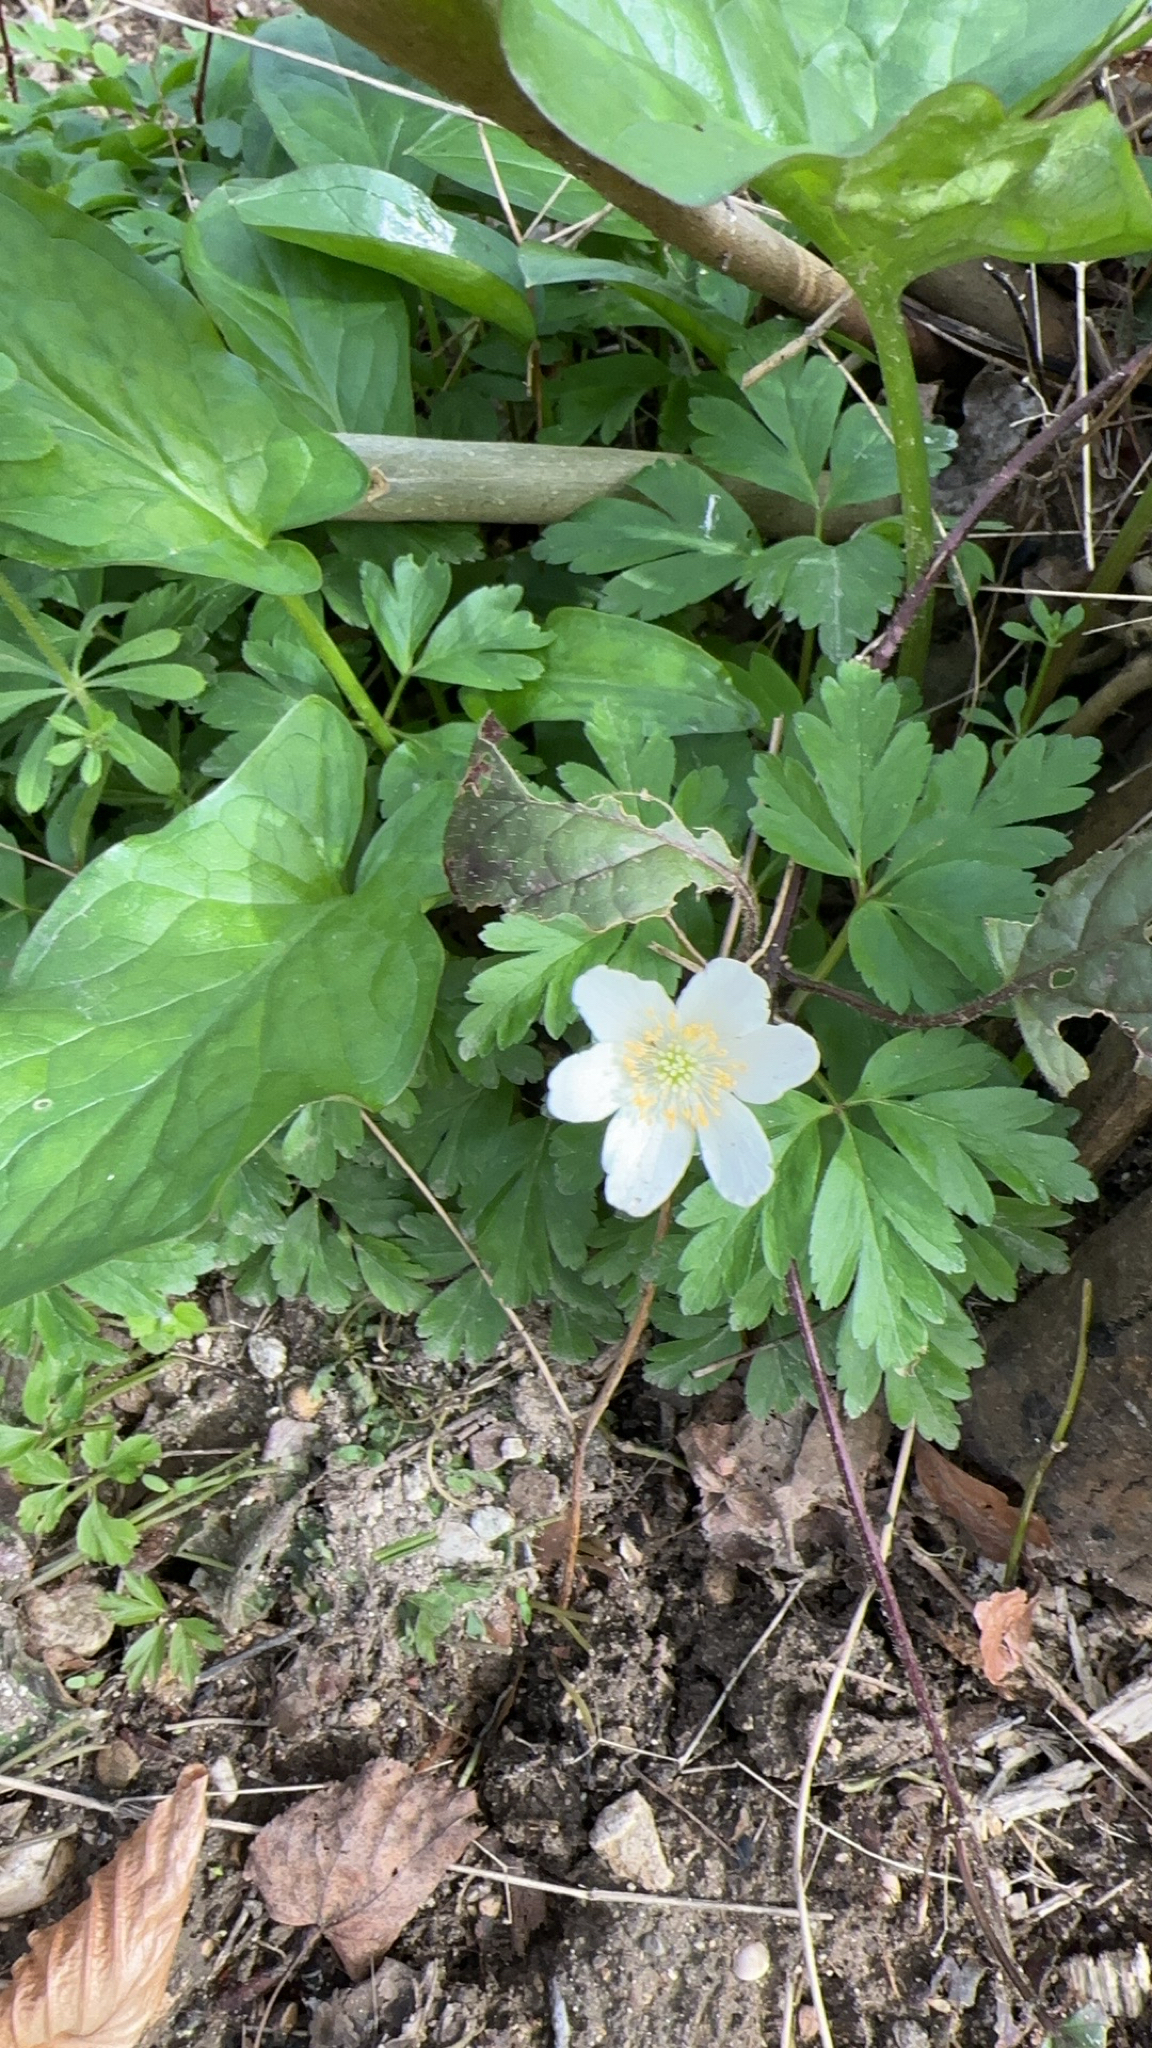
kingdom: Plantae
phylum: Tracheophyta
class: Magnoliopsida
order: Ranunculales
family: Ranunculaceae
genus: Anemone
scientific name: Anemone nemorosa
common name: Wood anemone
